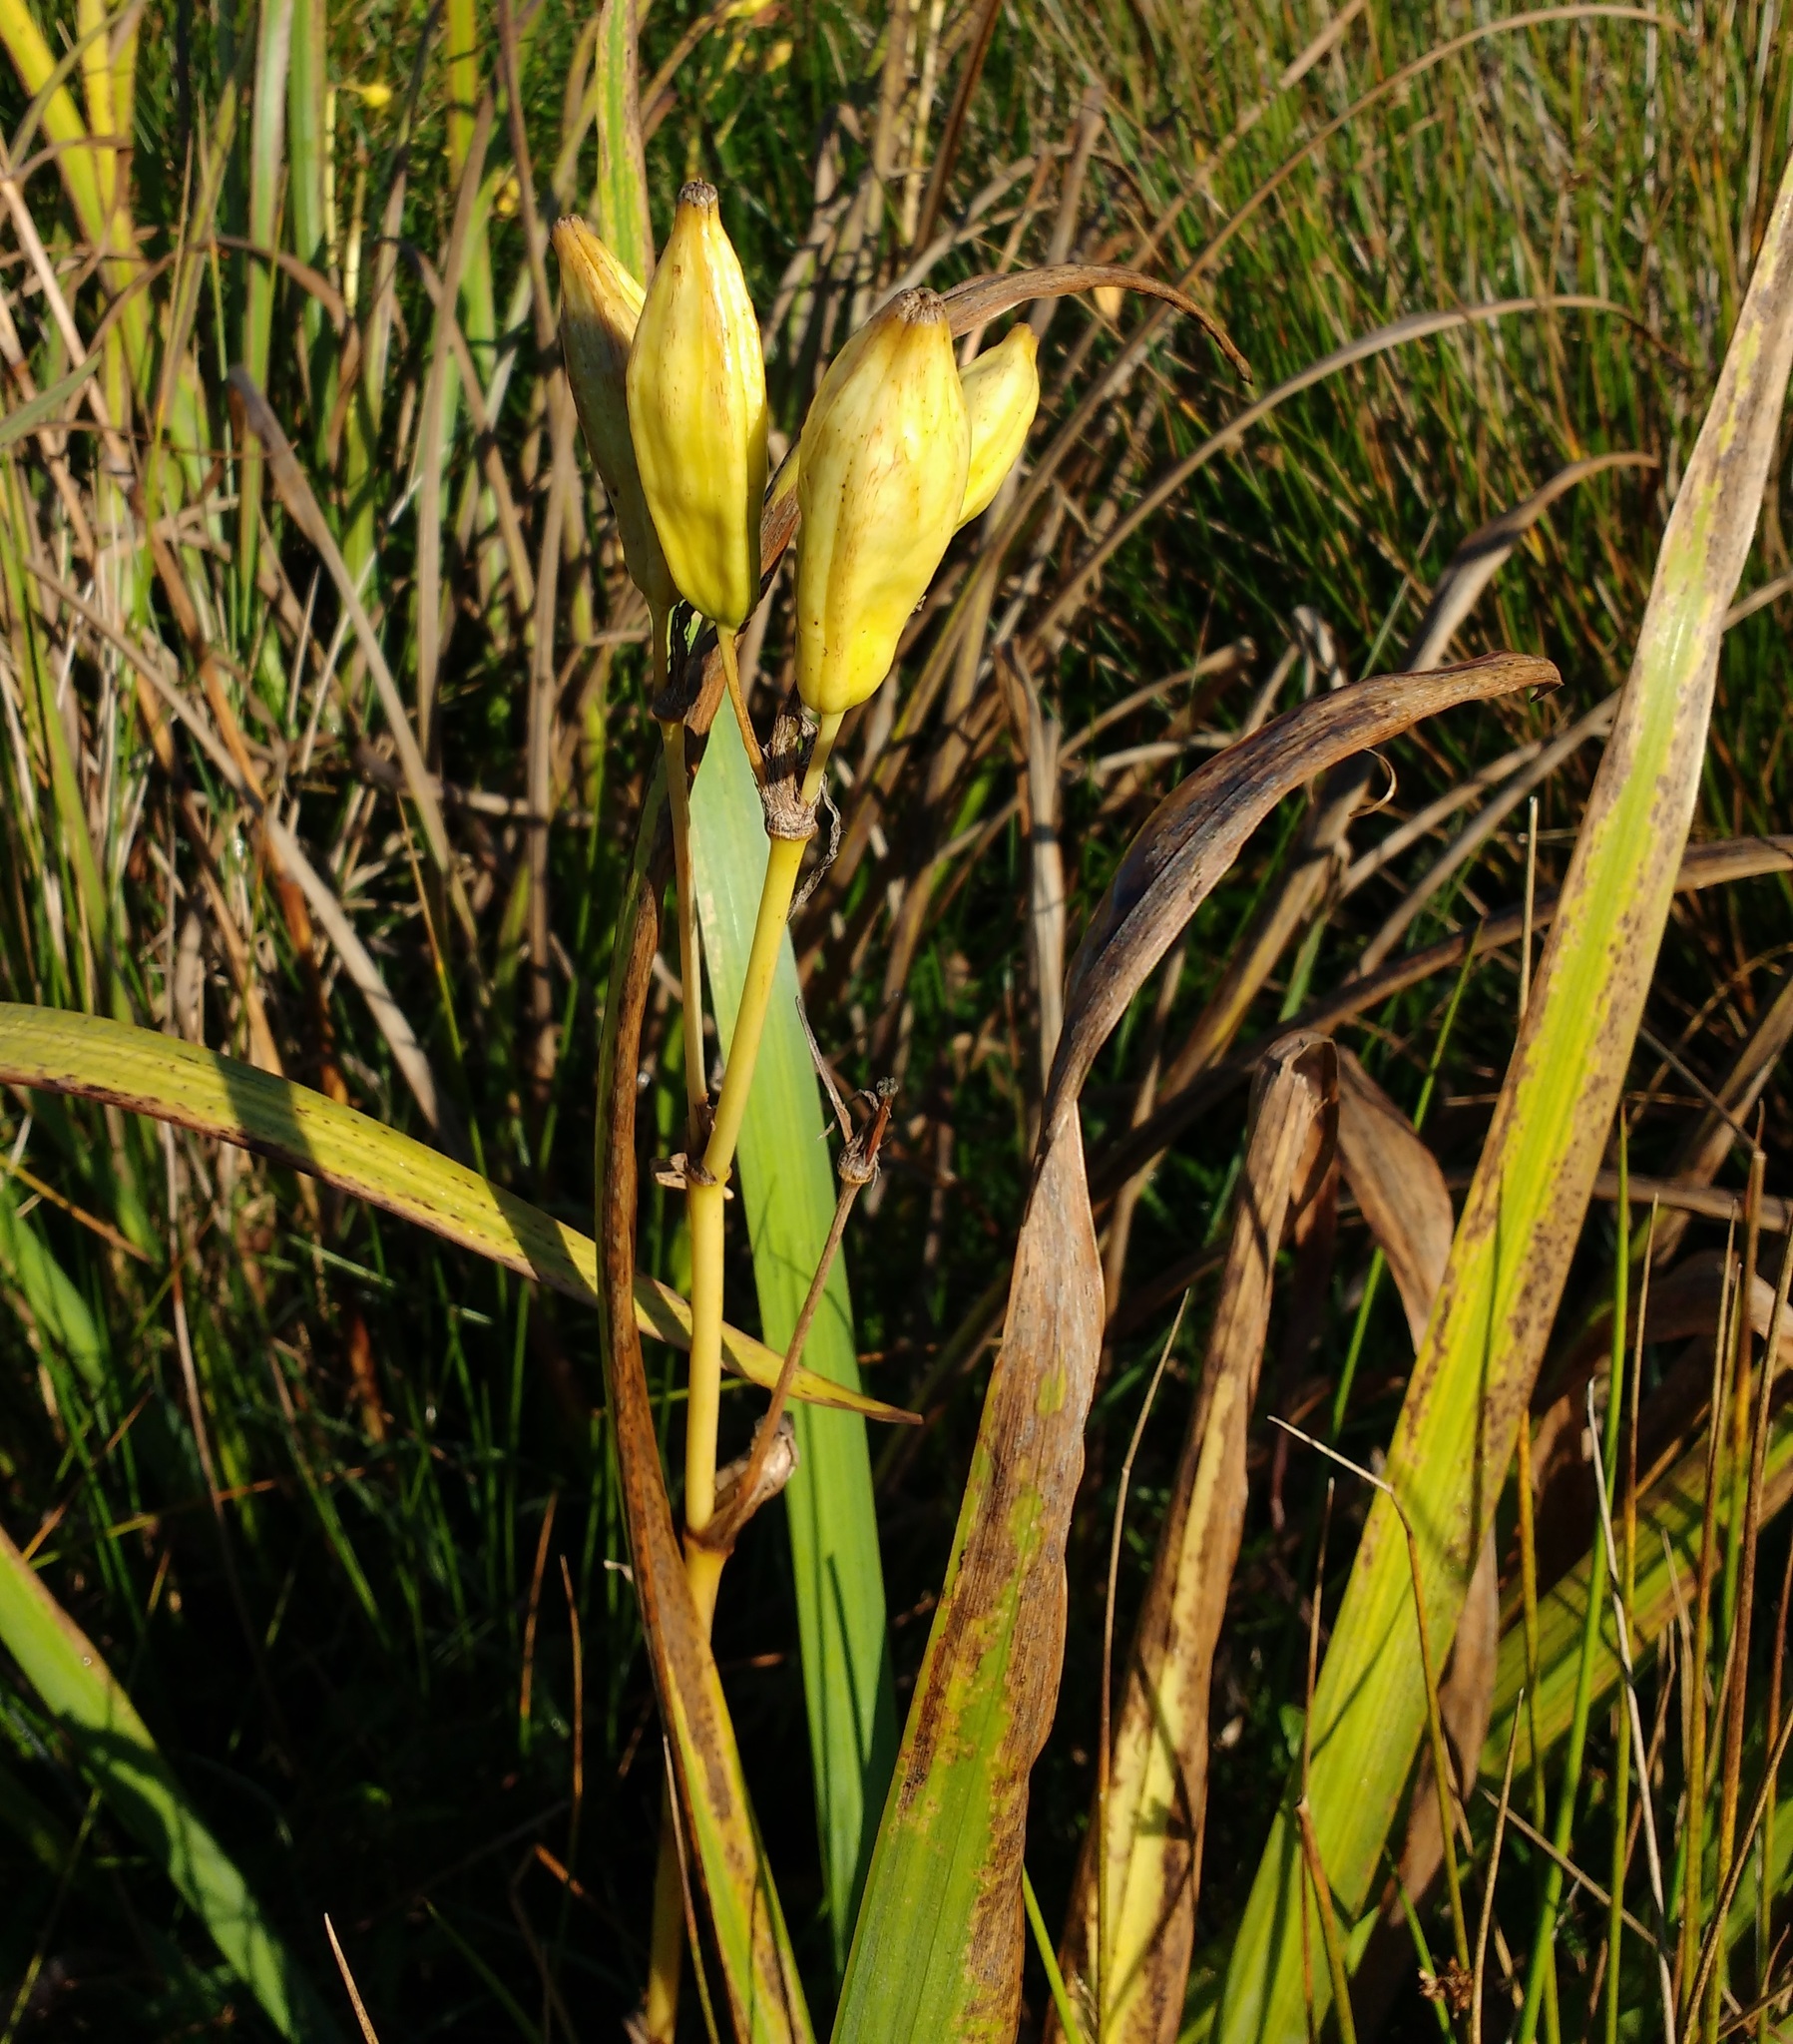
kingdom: Plantae
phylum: Tracheophyta
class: Liliopsida
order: Asparagales
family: Iridaceae
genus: Iris
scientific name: Iris pseudacorus
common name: Yellow flag
